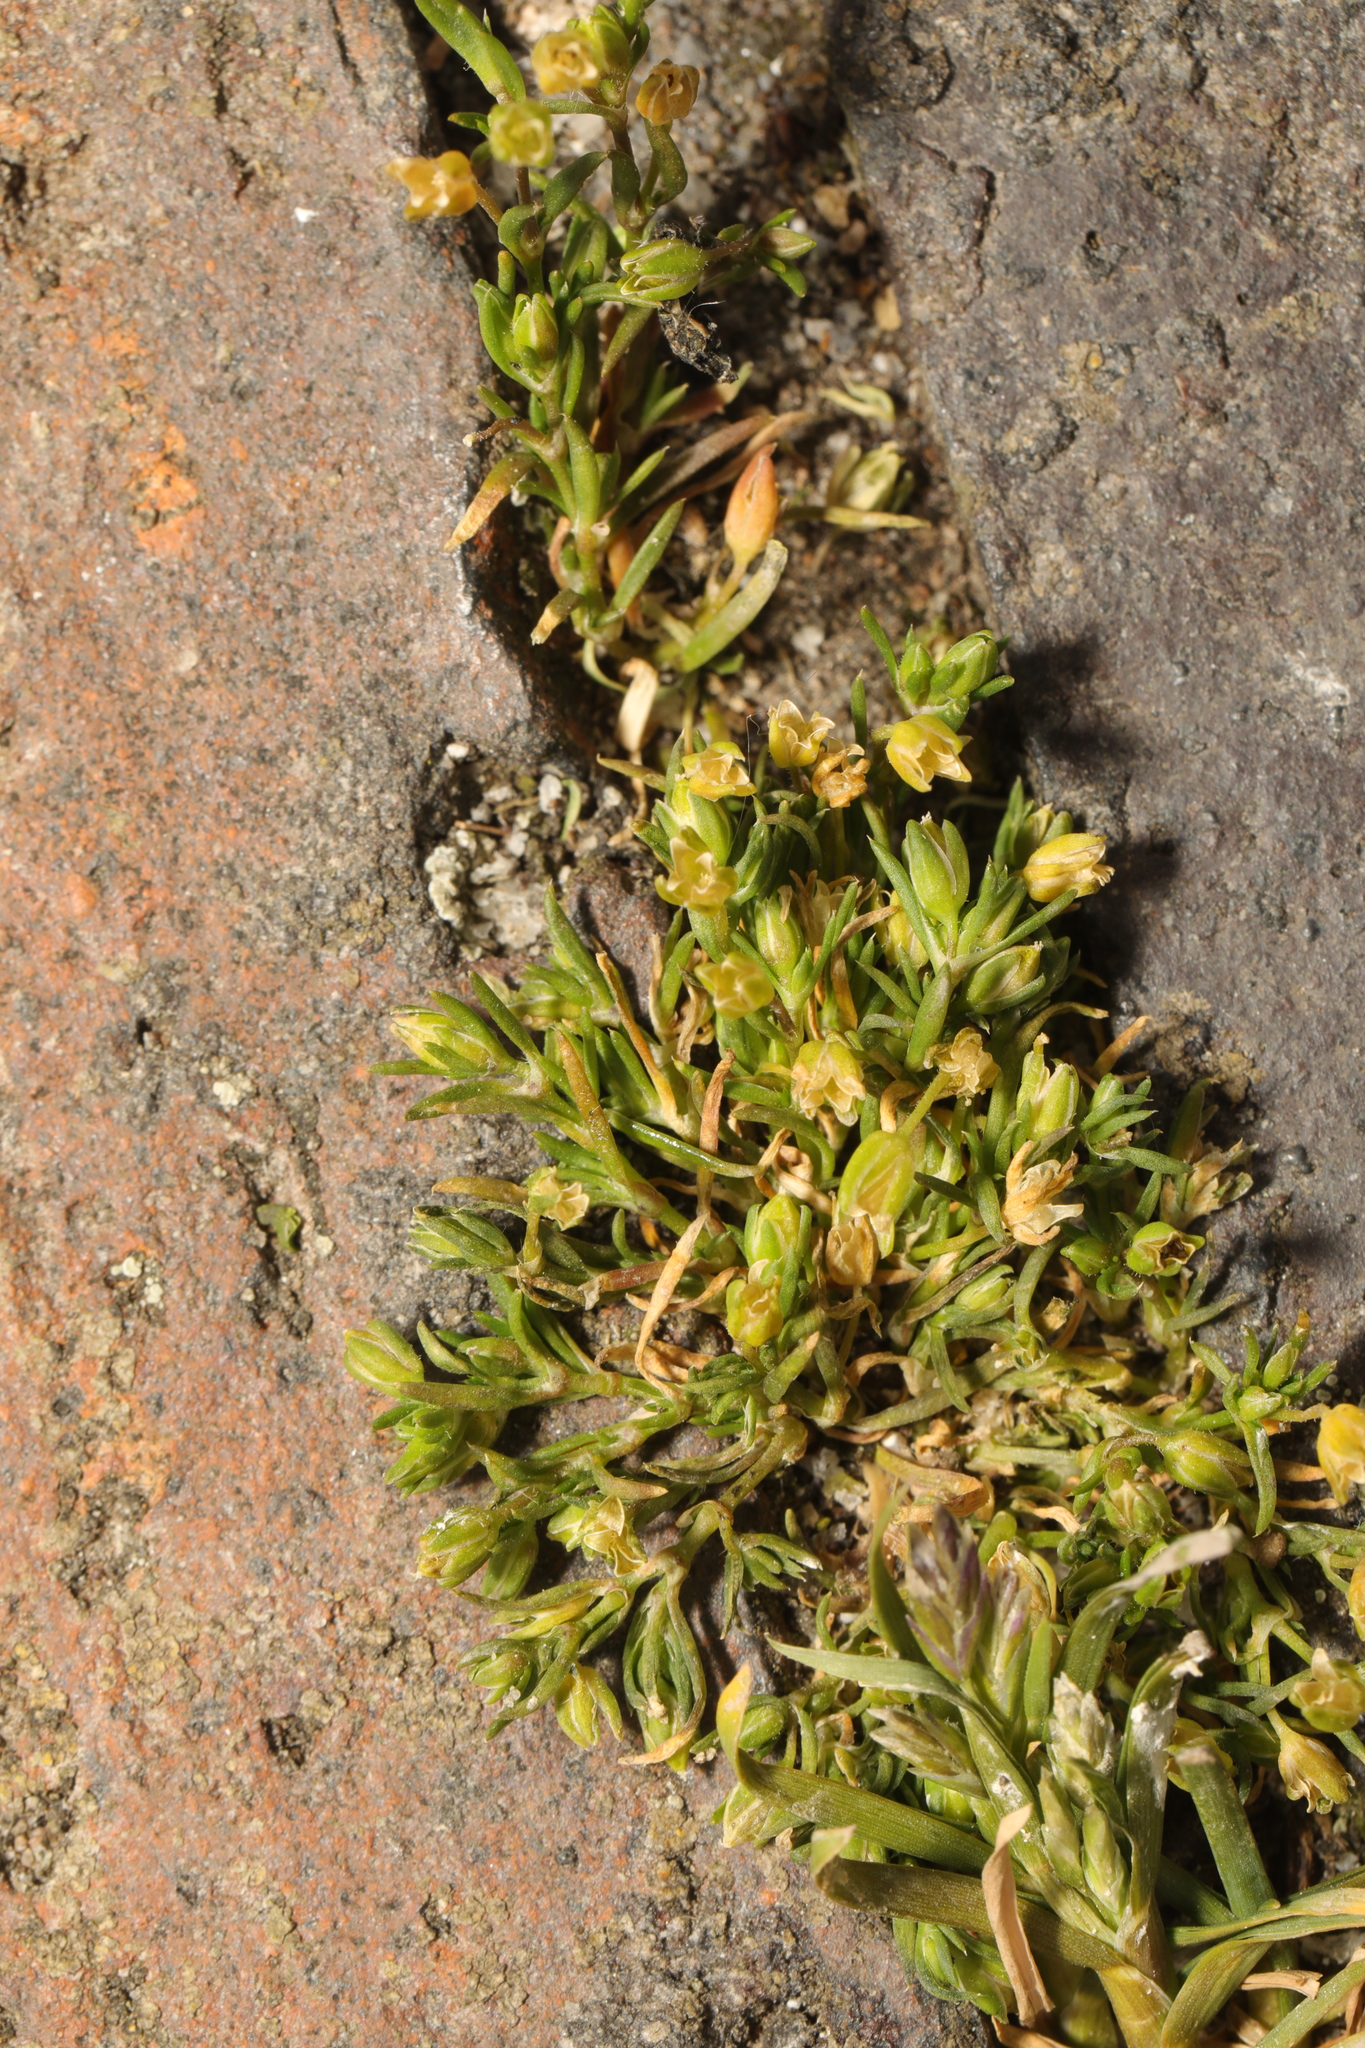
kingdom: Plantae
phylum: Tracheophyta
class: Magnoliopsida
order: Caryophyllales
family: Caryophyllaceae
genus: Sagina
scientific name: Sagina procumbens
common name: Procumbent pearlwort
